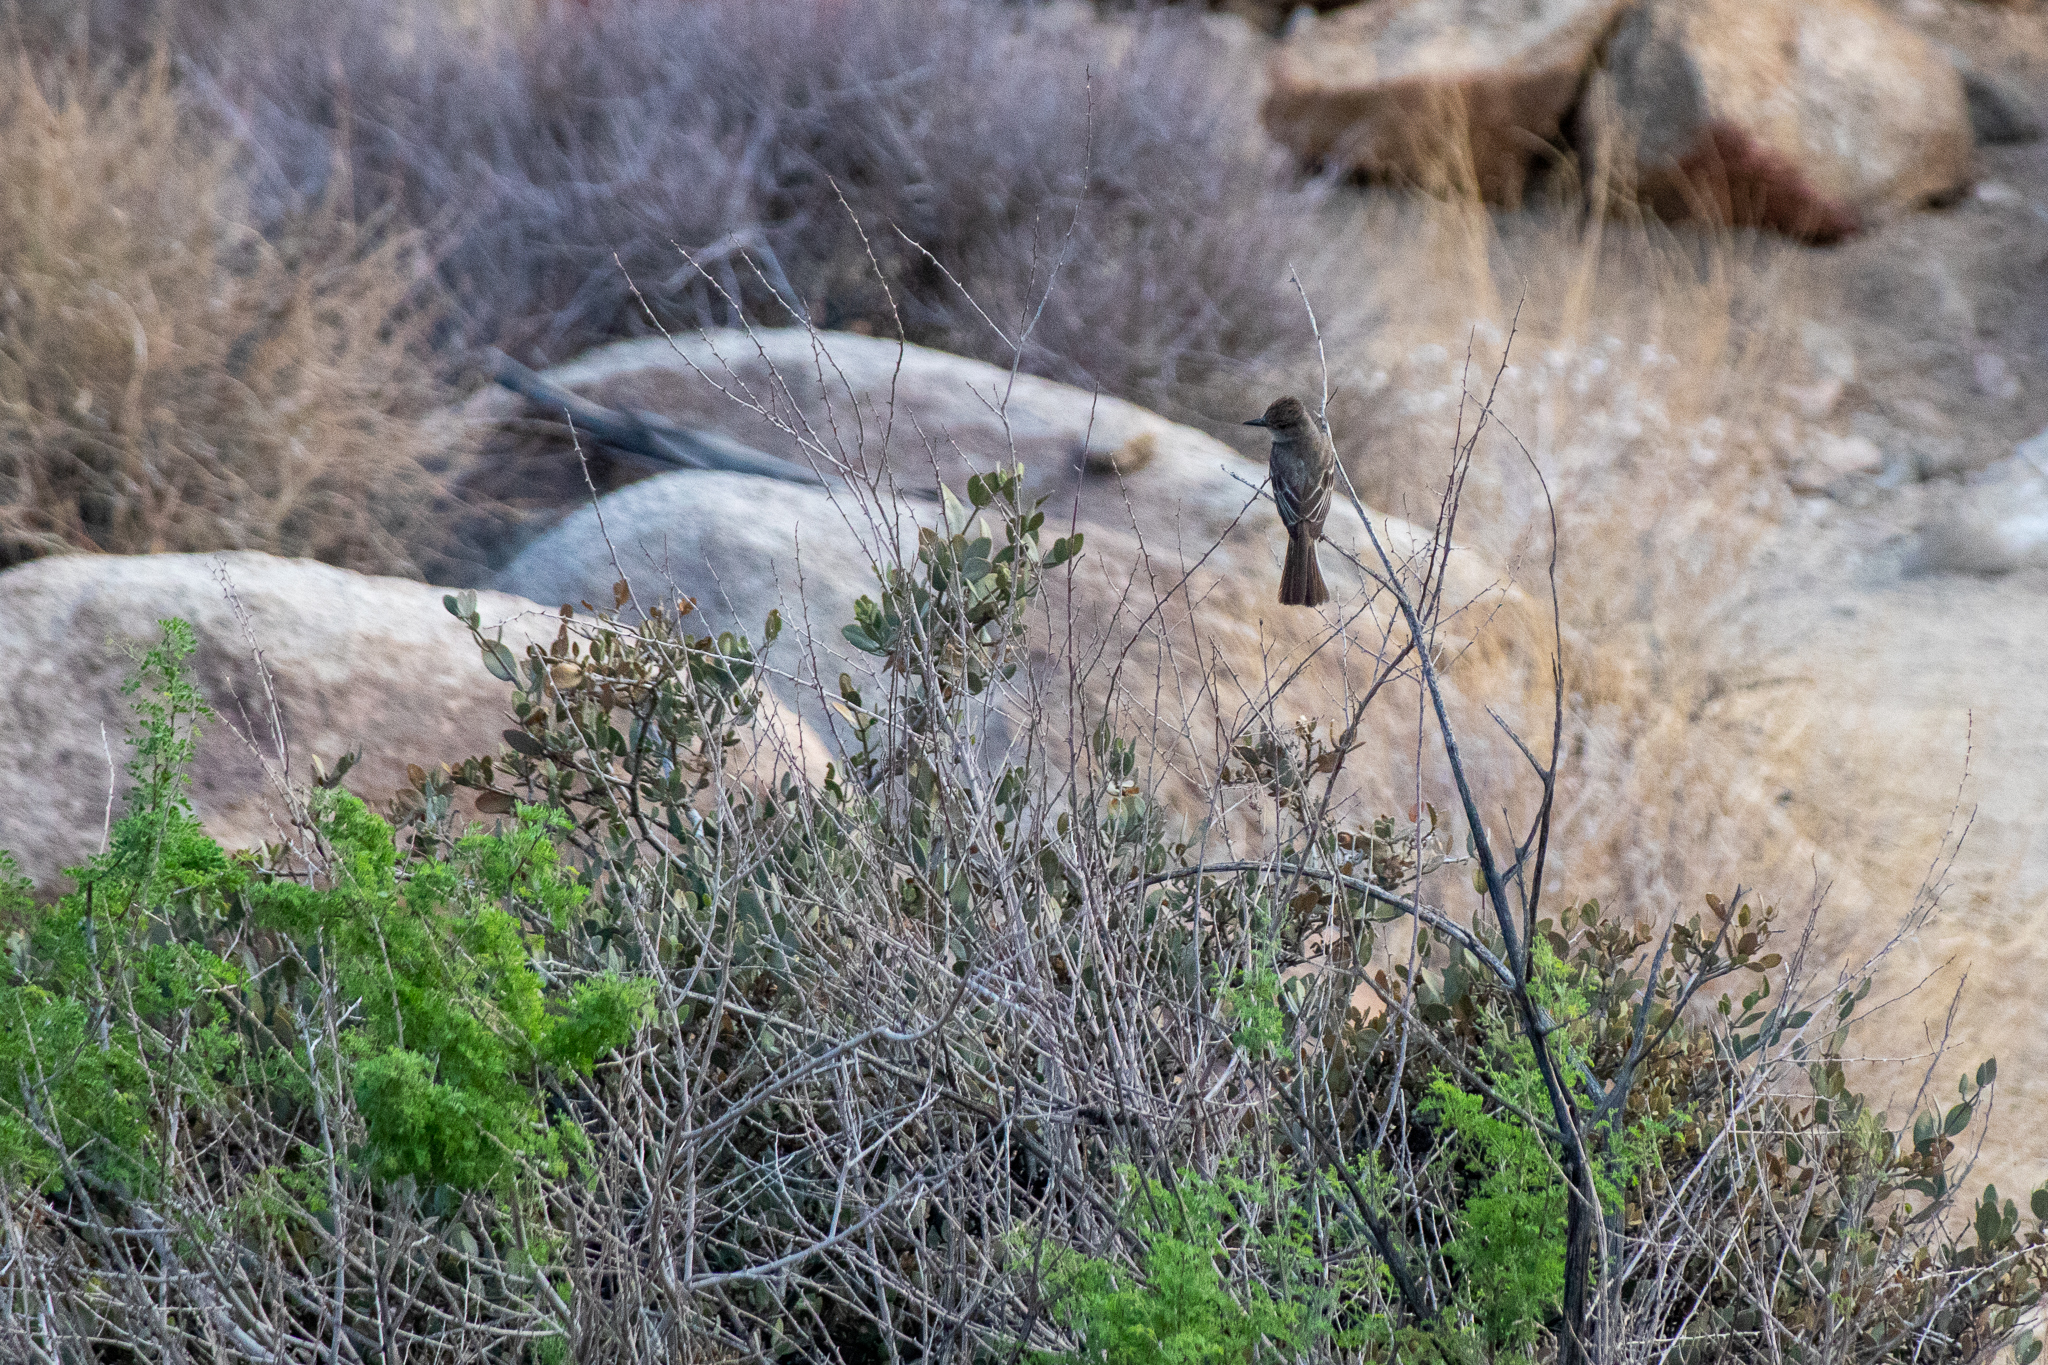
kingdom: Animalia
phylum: Chordata
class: Aves
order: Passeriformes
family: Tyrannidae
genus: Myiarchus
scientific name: Myiarchus cinerascens
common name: Ash-throated flycatcher
